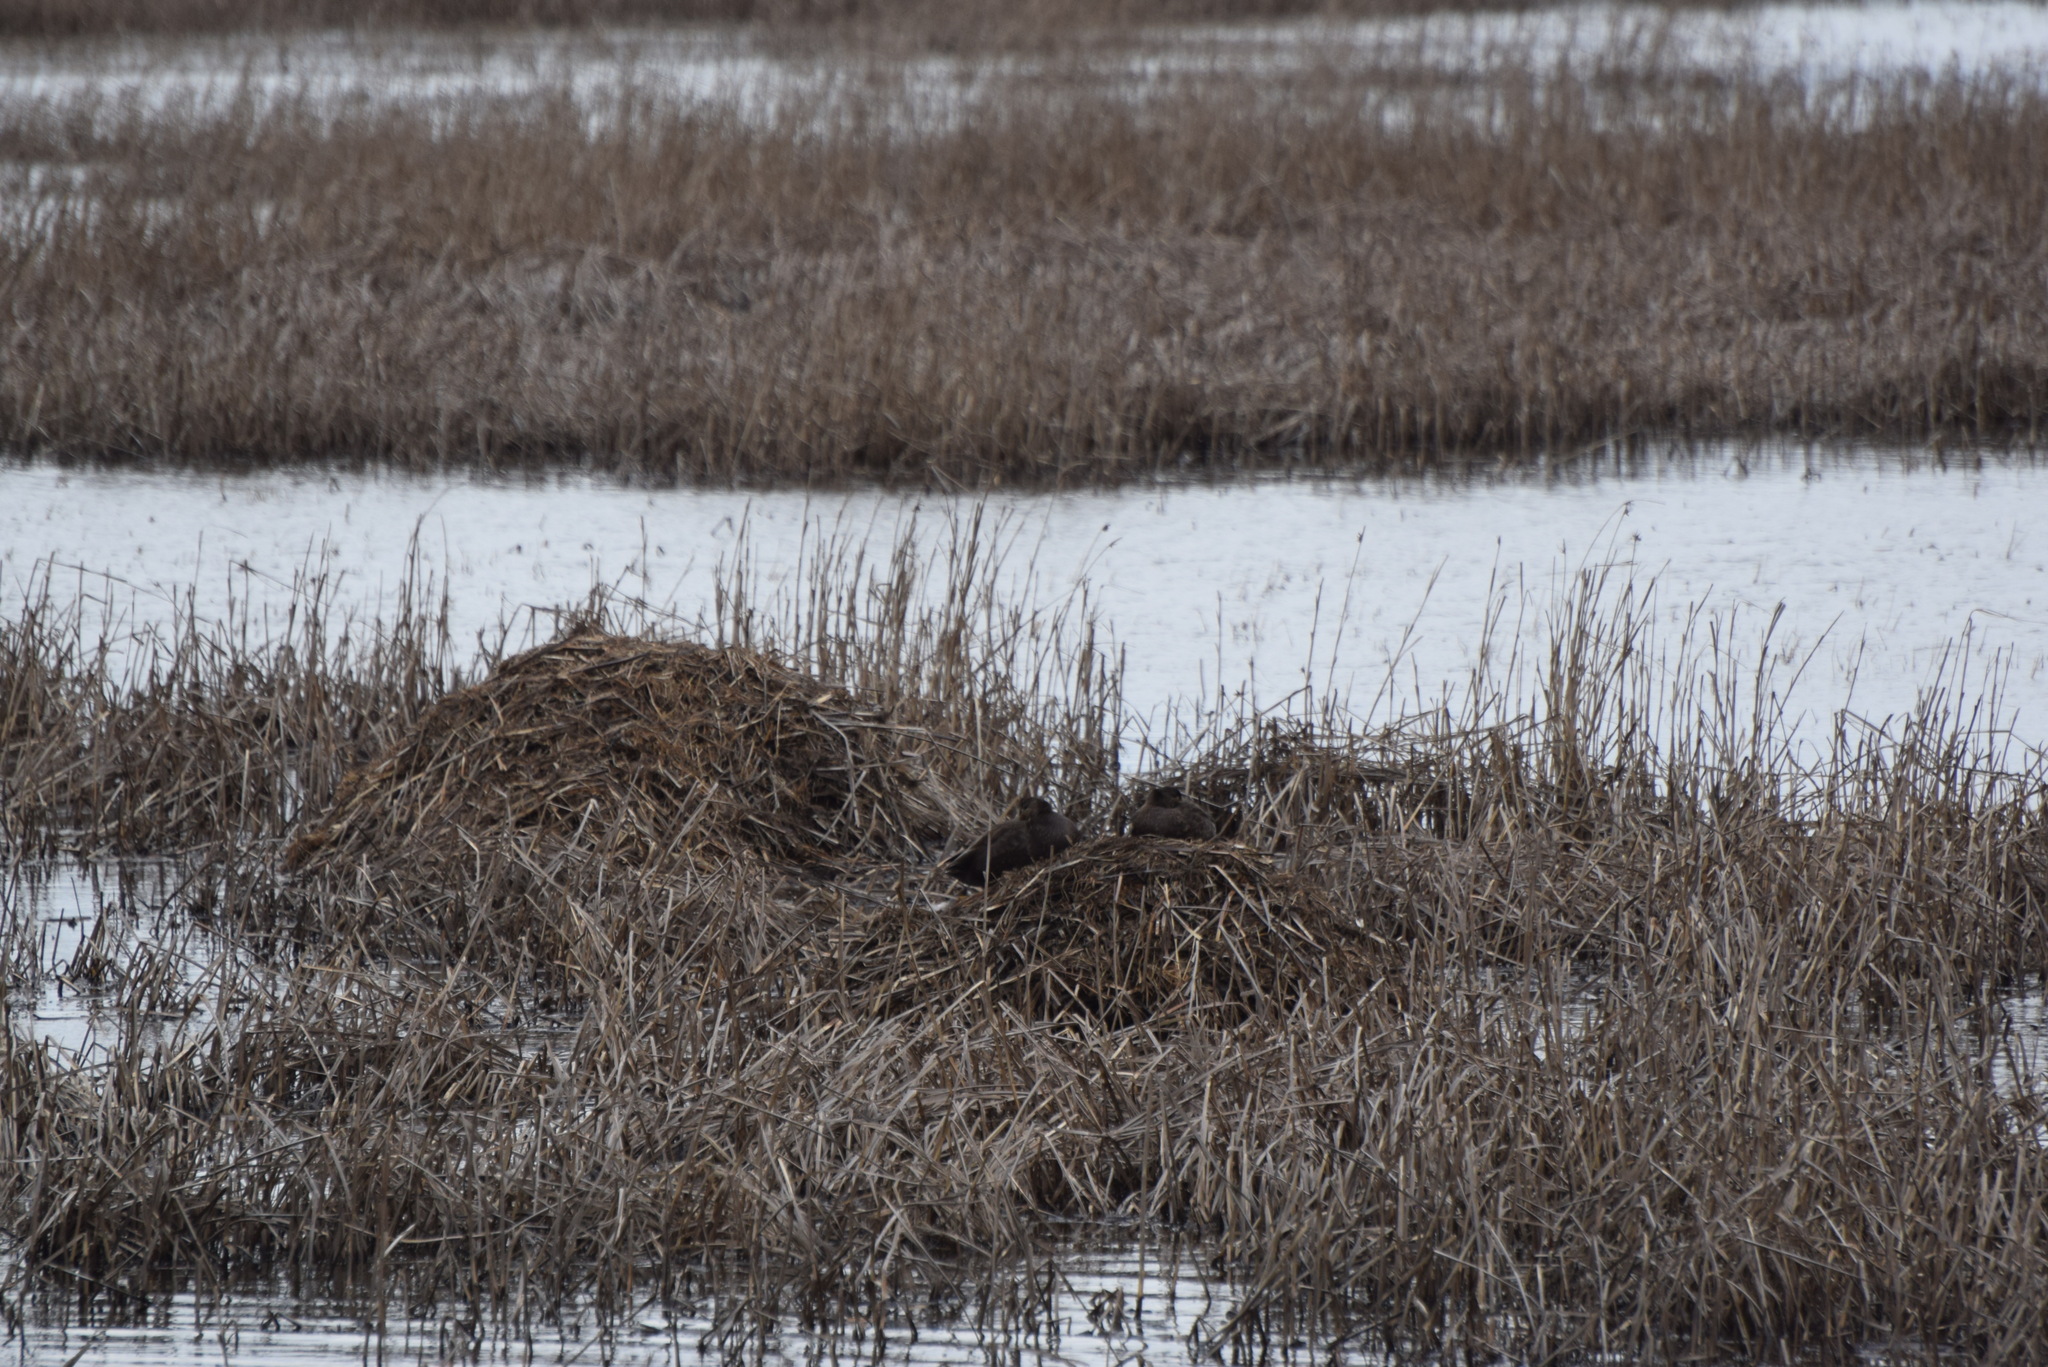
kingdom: Animalia
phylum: Chordata
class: Aves
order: Anseriformes
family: Anatidae
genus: Anas
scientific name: Anas rubripes
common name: American black duck
